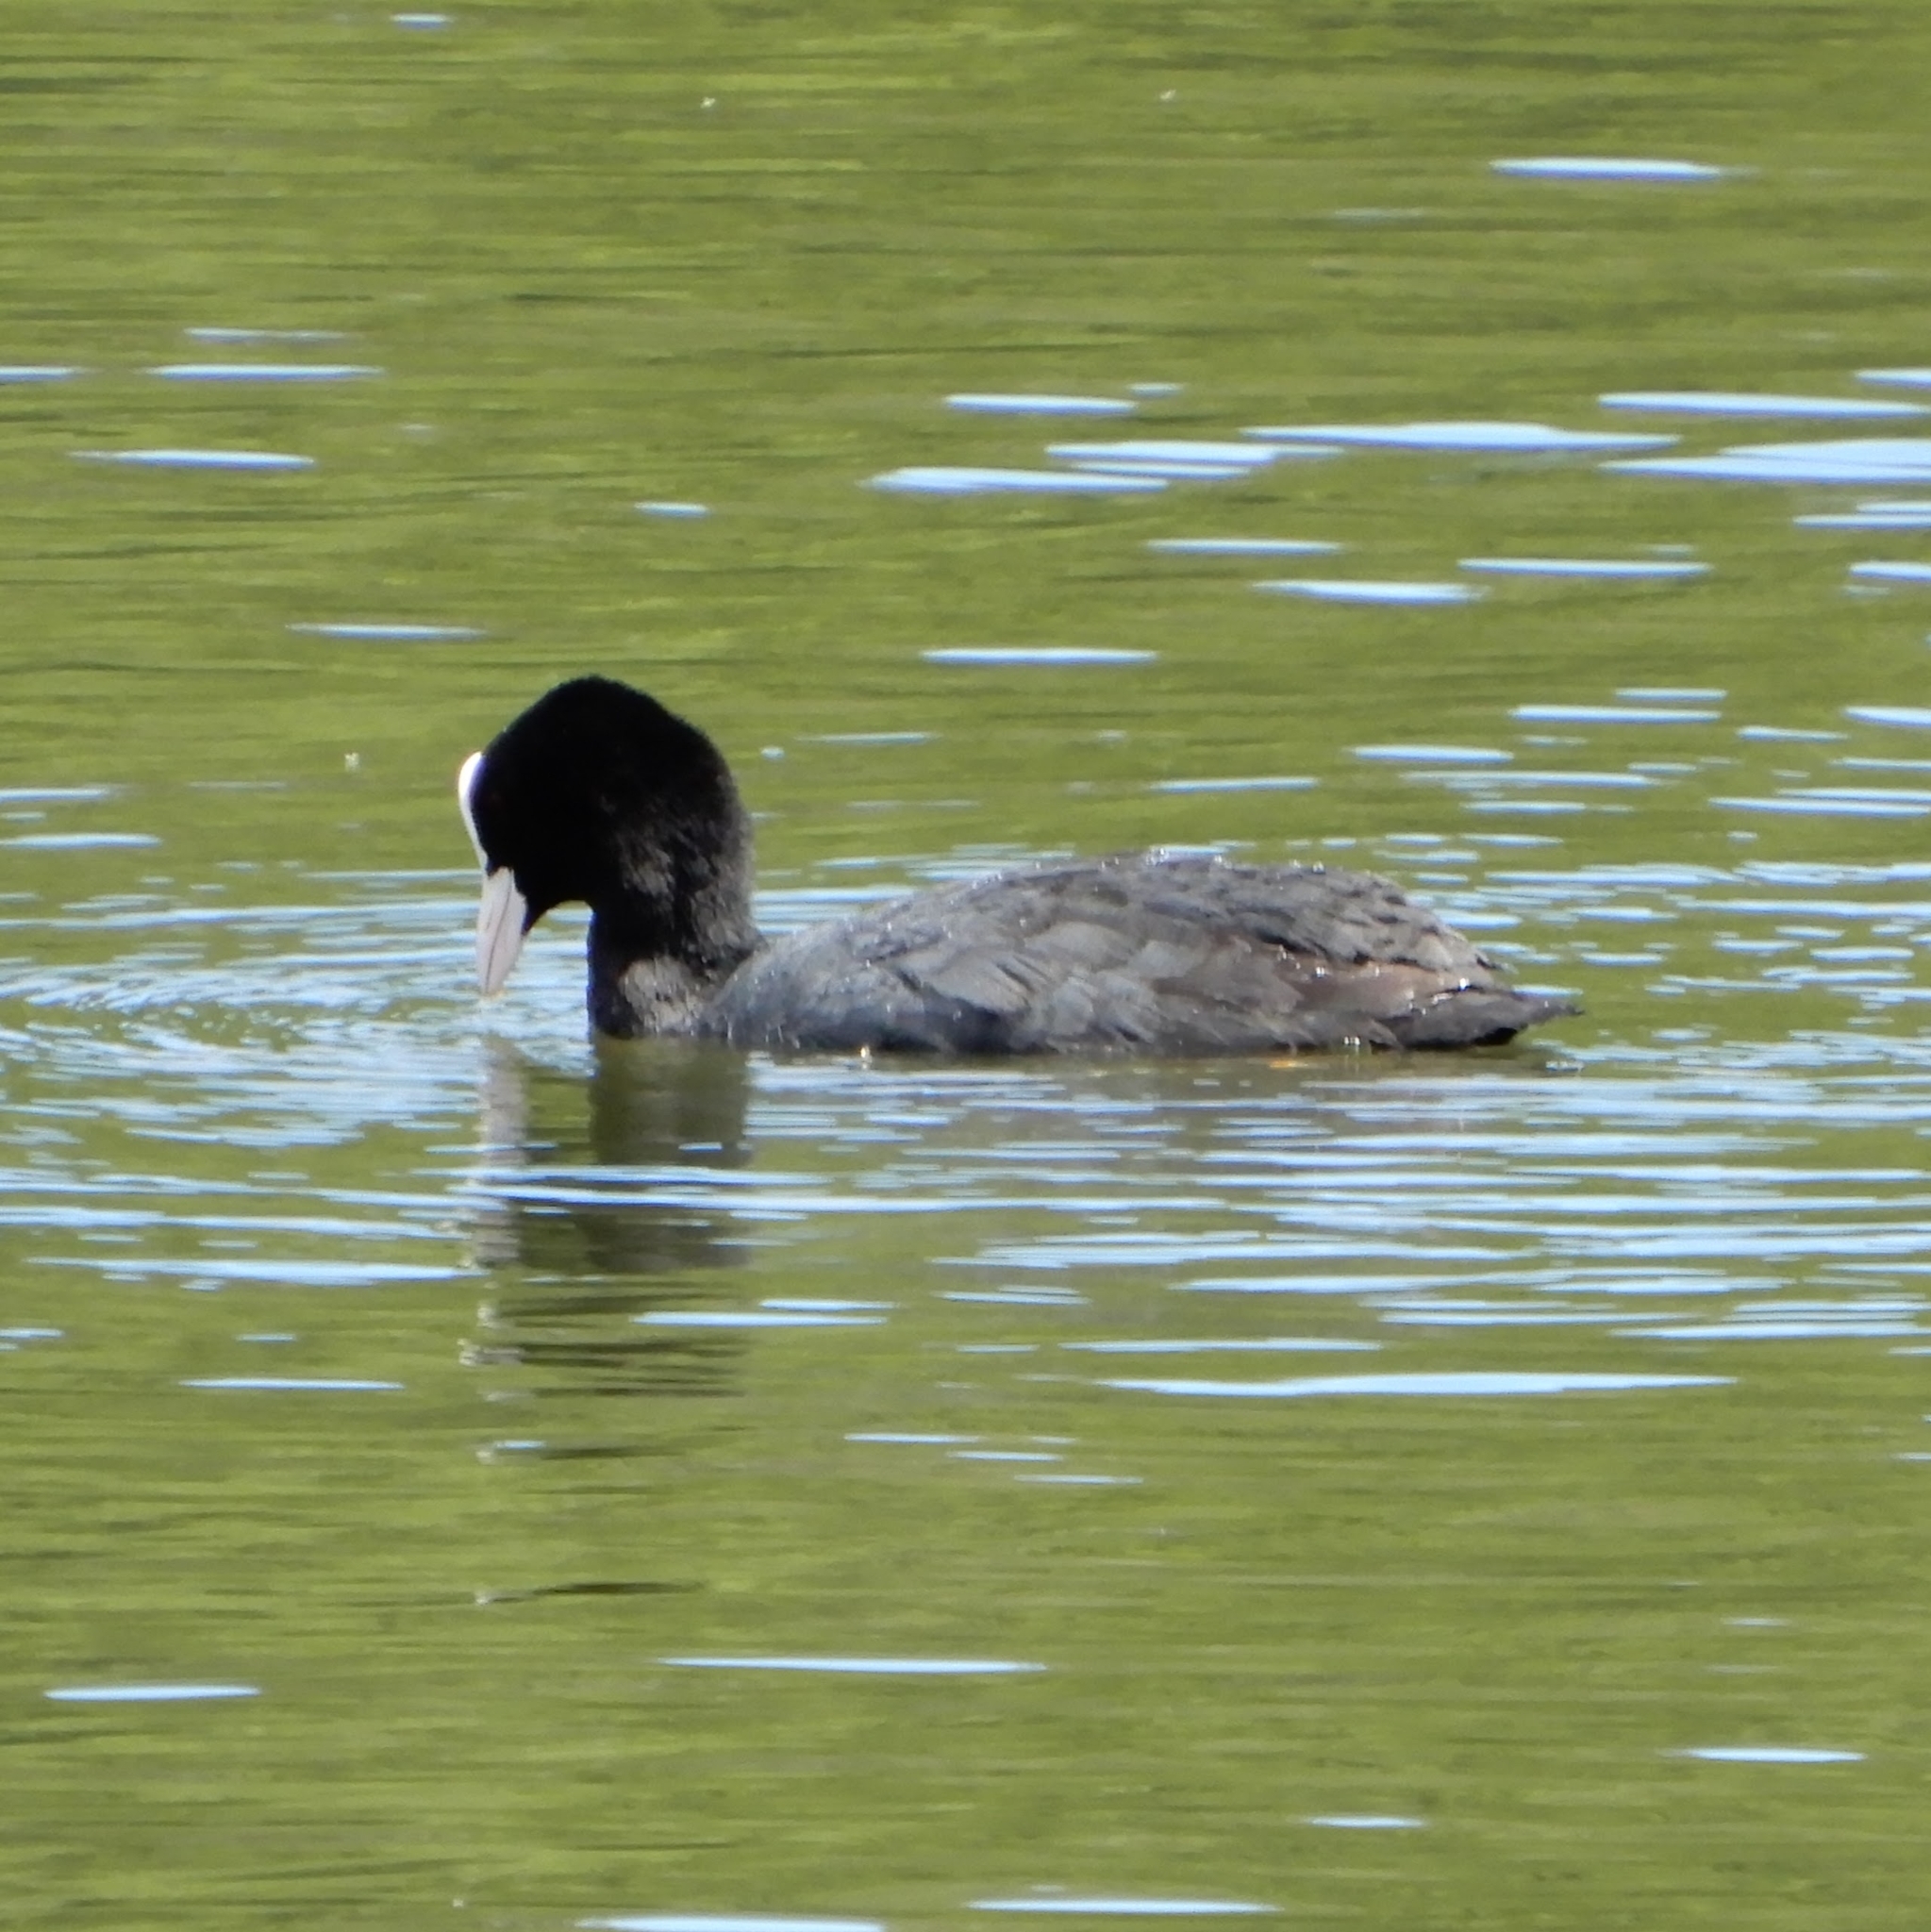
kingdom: Animalia
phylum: Chordata
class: Aves
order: Gruiformes
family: Rallidae
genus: Fulica
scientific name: Fulica atra
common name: Eurasian coot
